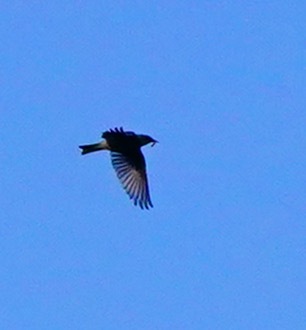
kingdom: Animalia
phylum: Chordata
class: Aves
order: Passeriformes
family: Turdidae
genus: Sialia
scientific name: Sialia currucoides
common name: Mountain bluebird
